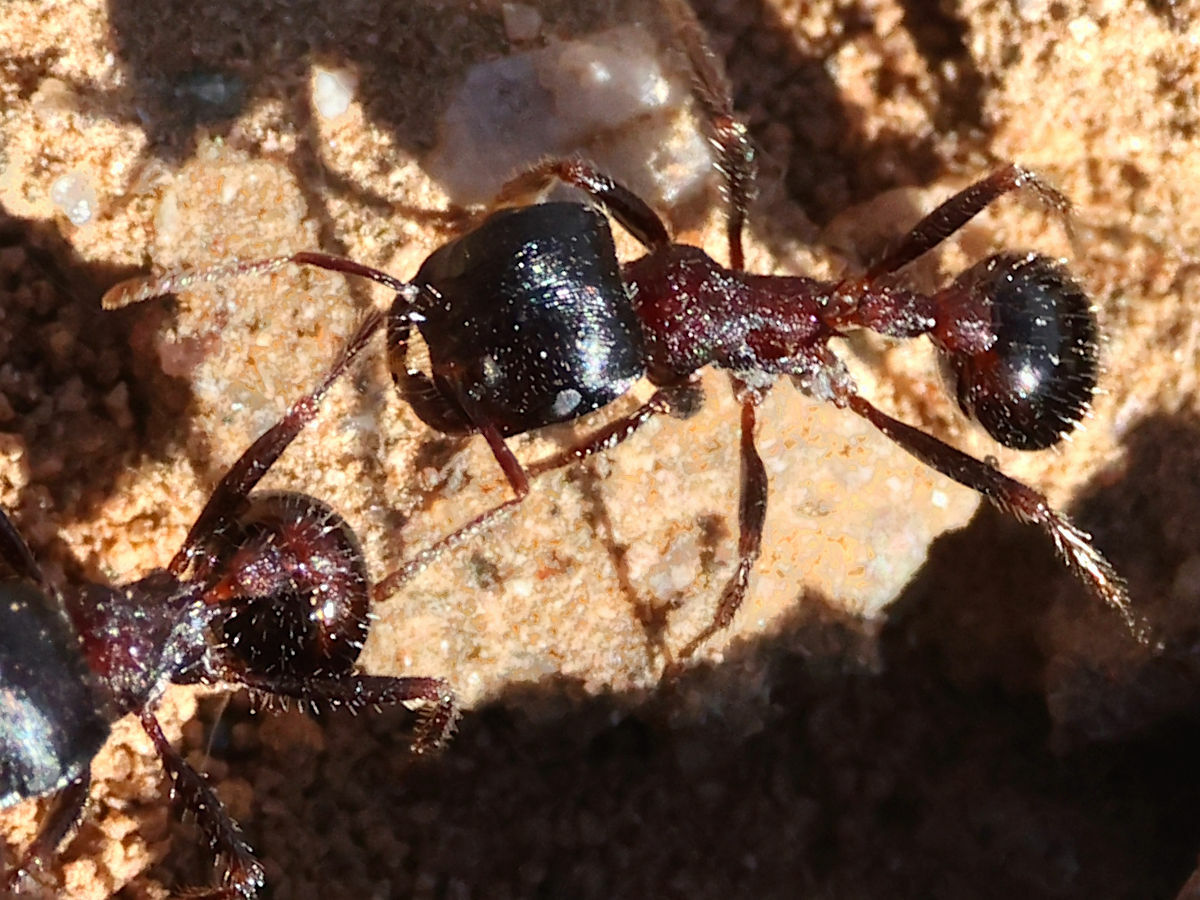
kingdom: Animalia
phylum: Arthropoda
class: Insecta
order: Hymenoptera
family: Formicidae
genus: Pogonomyrmex
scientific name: Pogonomyrmex rugosus
